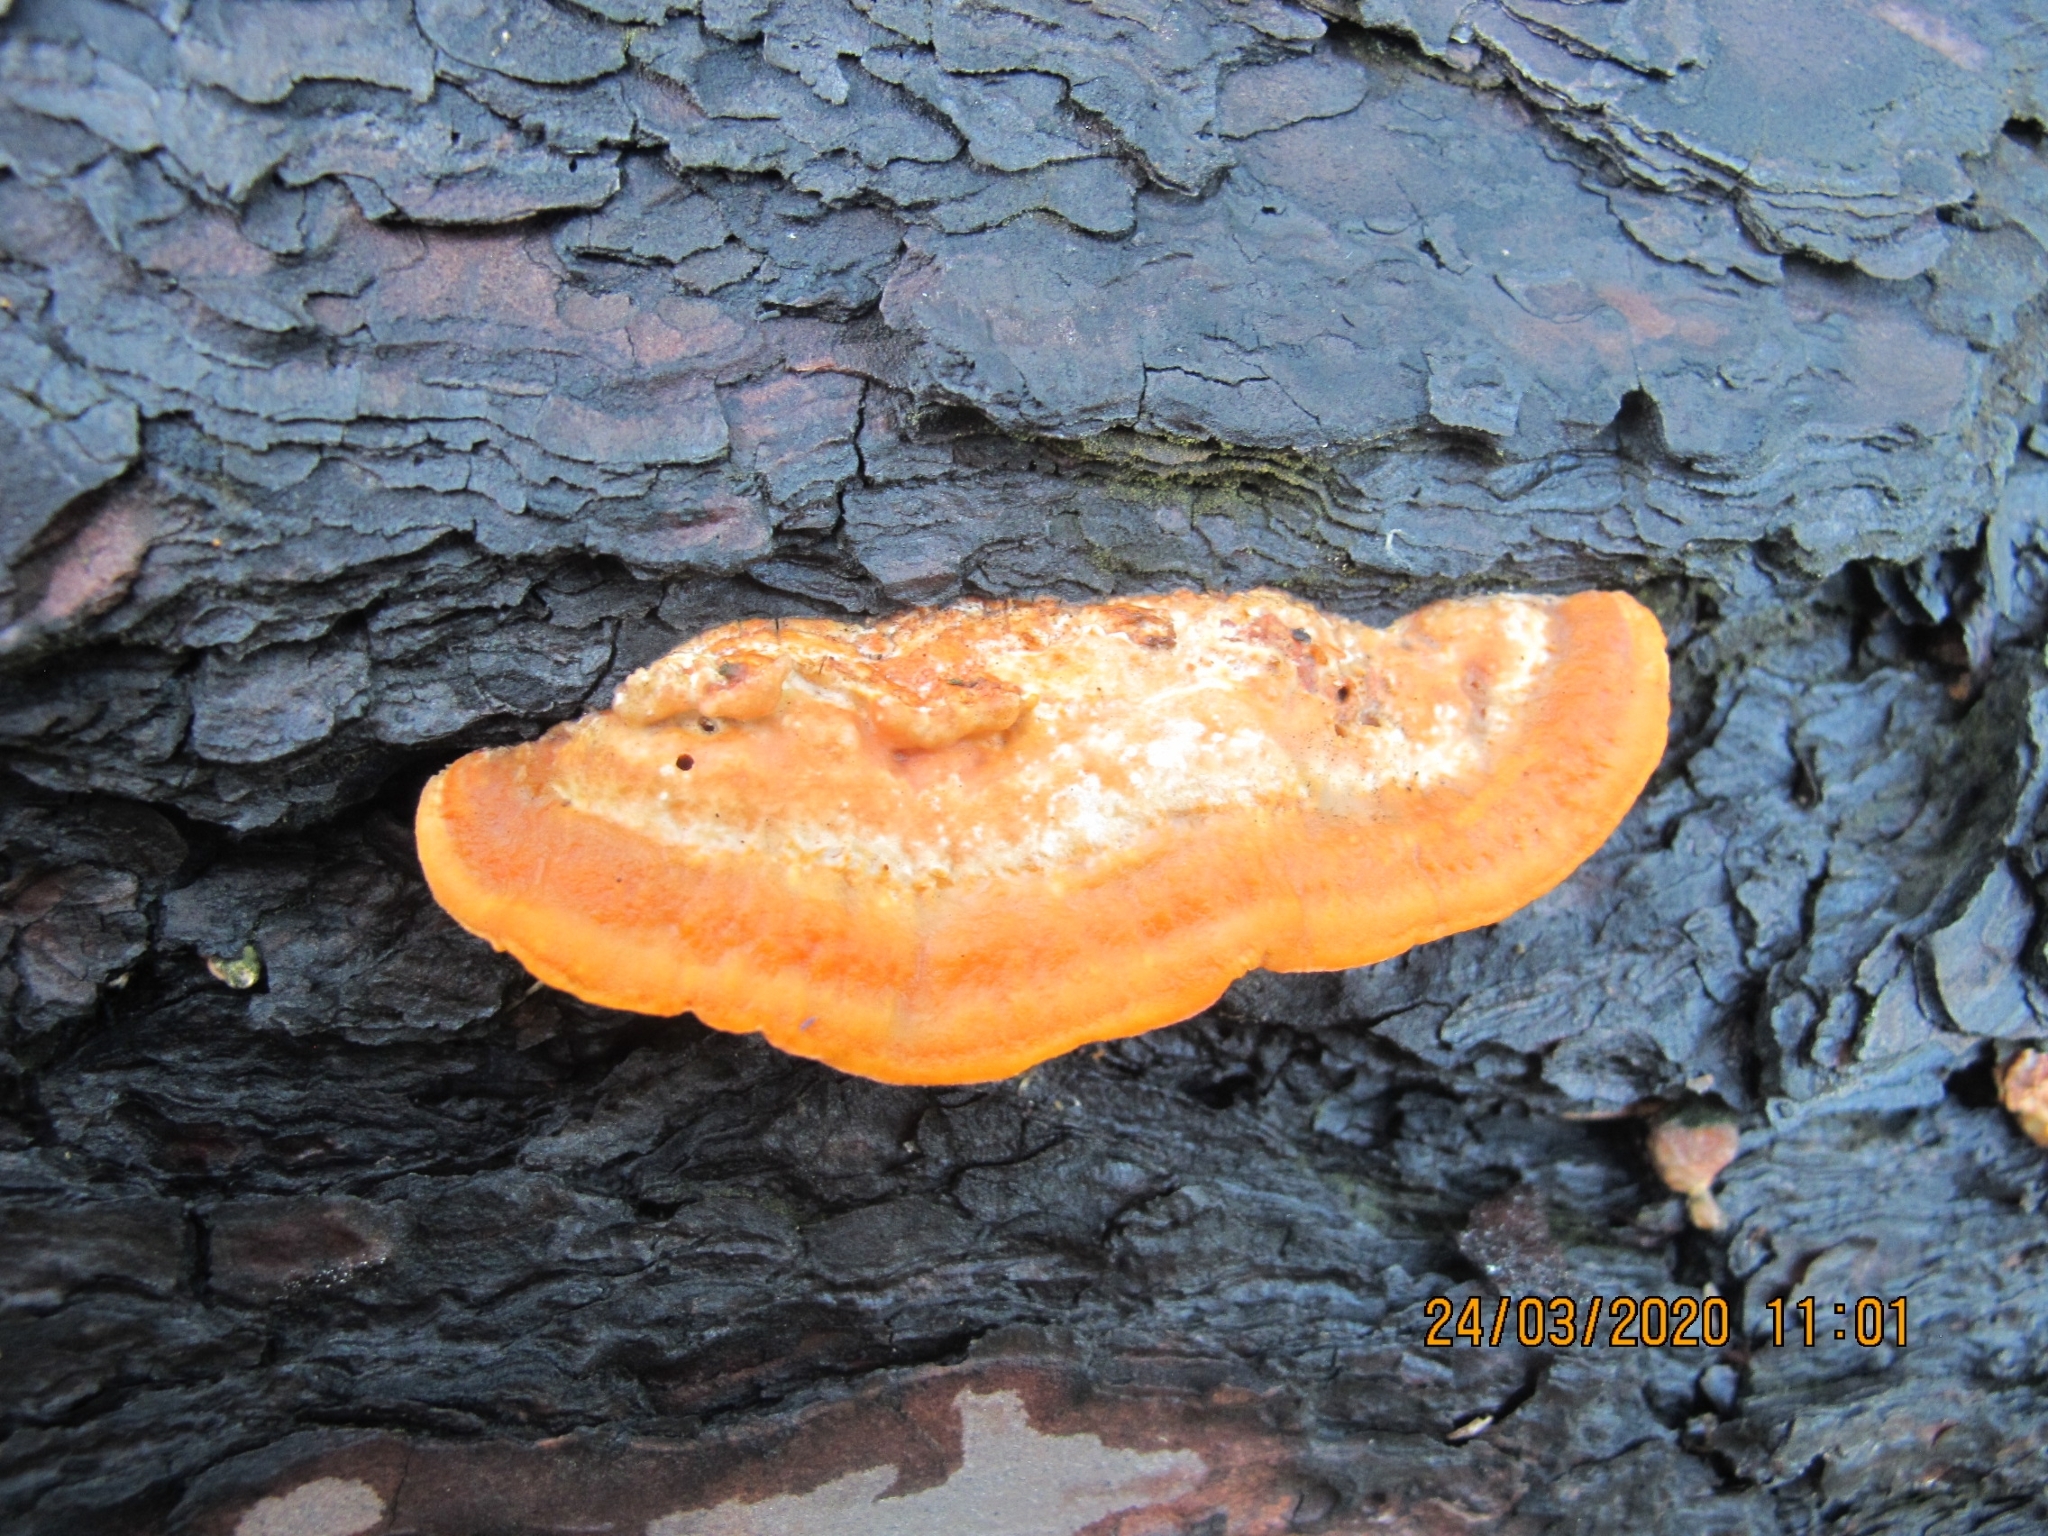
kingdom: Fungi
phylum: Basidiomycota
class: Agaricomycetes
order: Polyporales
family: Polyporaceae
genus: Trametes
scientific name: Trametes coccinea
